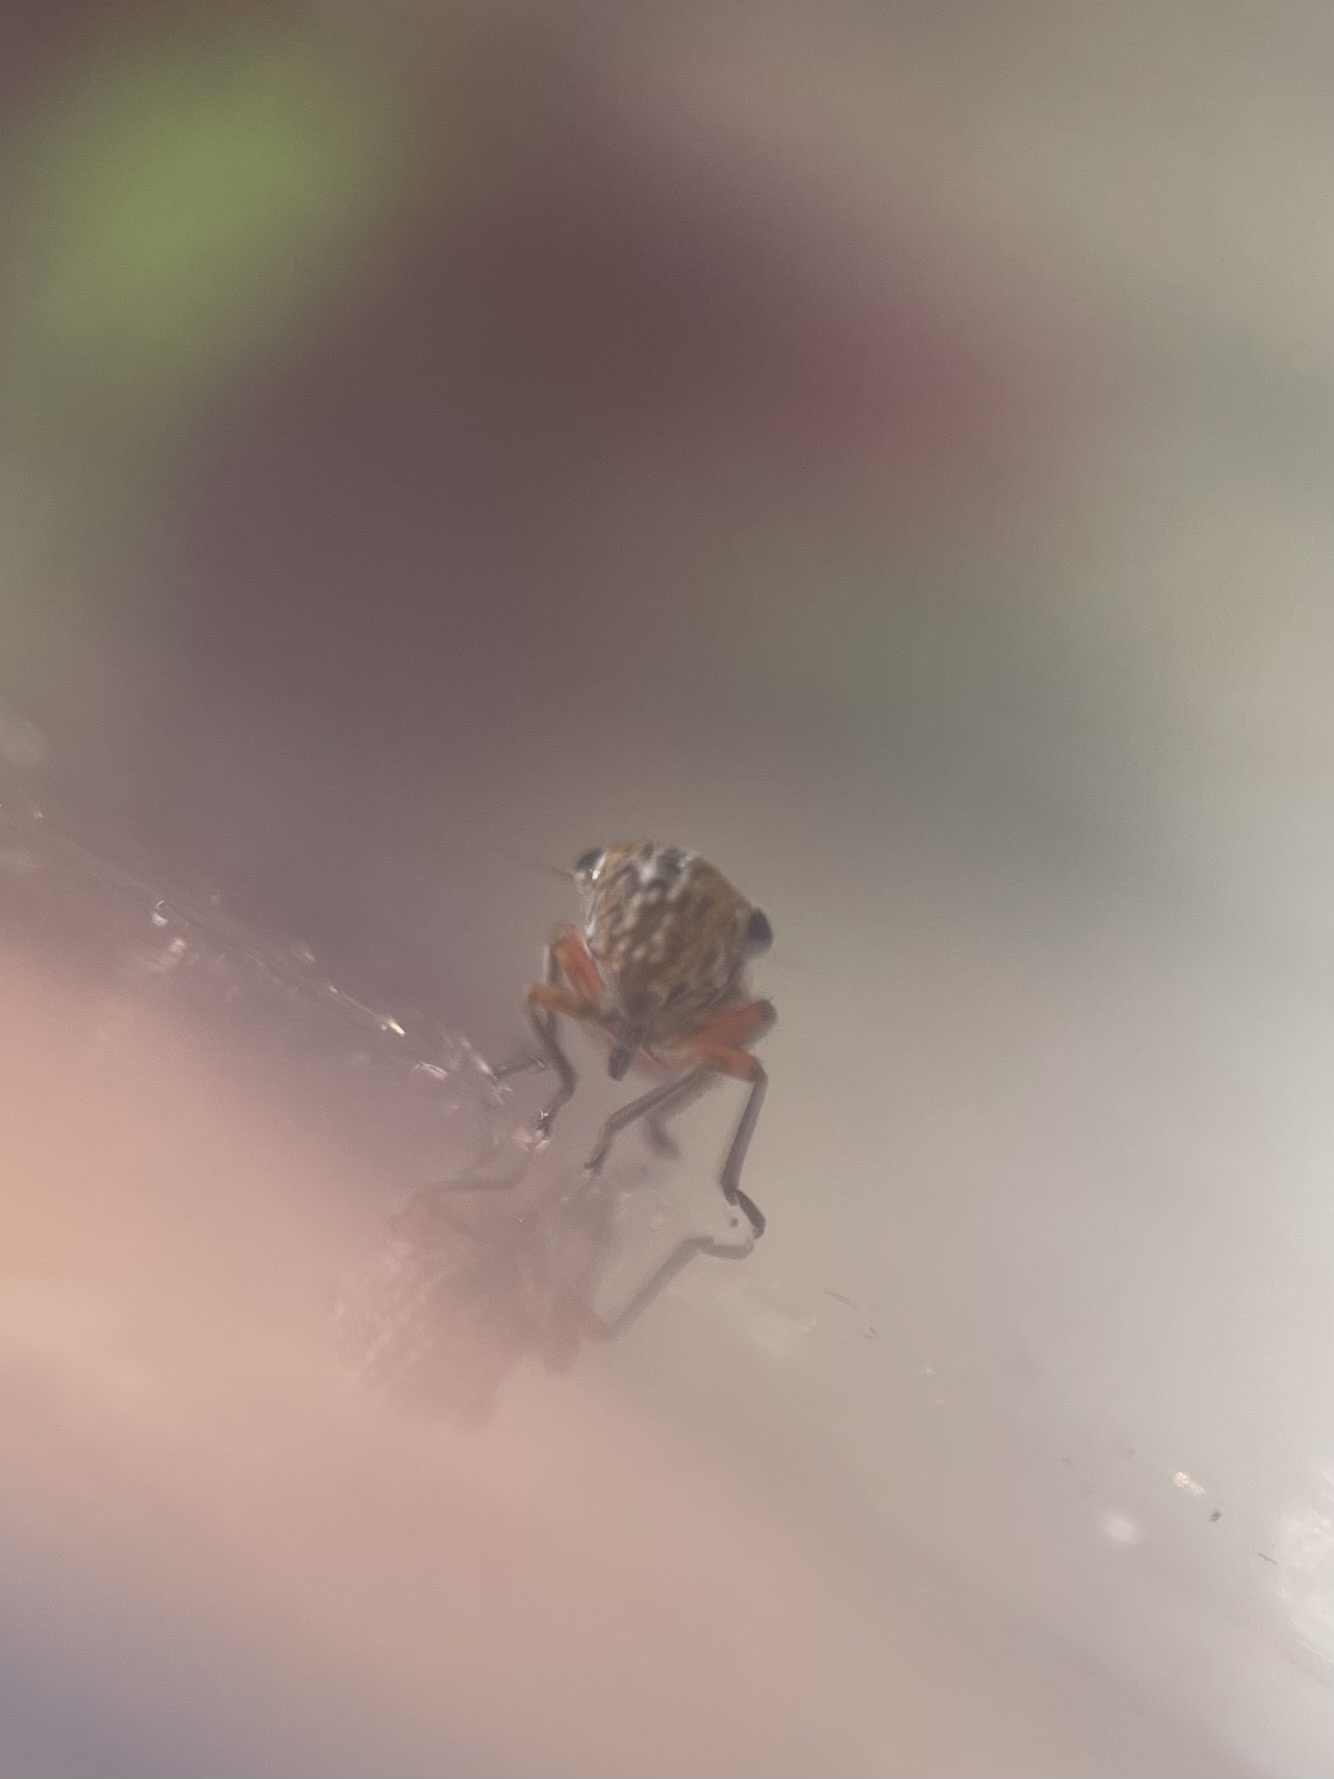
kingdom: Animalia
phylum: Arthropoda
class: Insecta
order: Hemiptera
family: Cicadellidae
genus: Cuerna
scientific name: Cuerna costalis
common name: Lateral-lined sharpshooter
